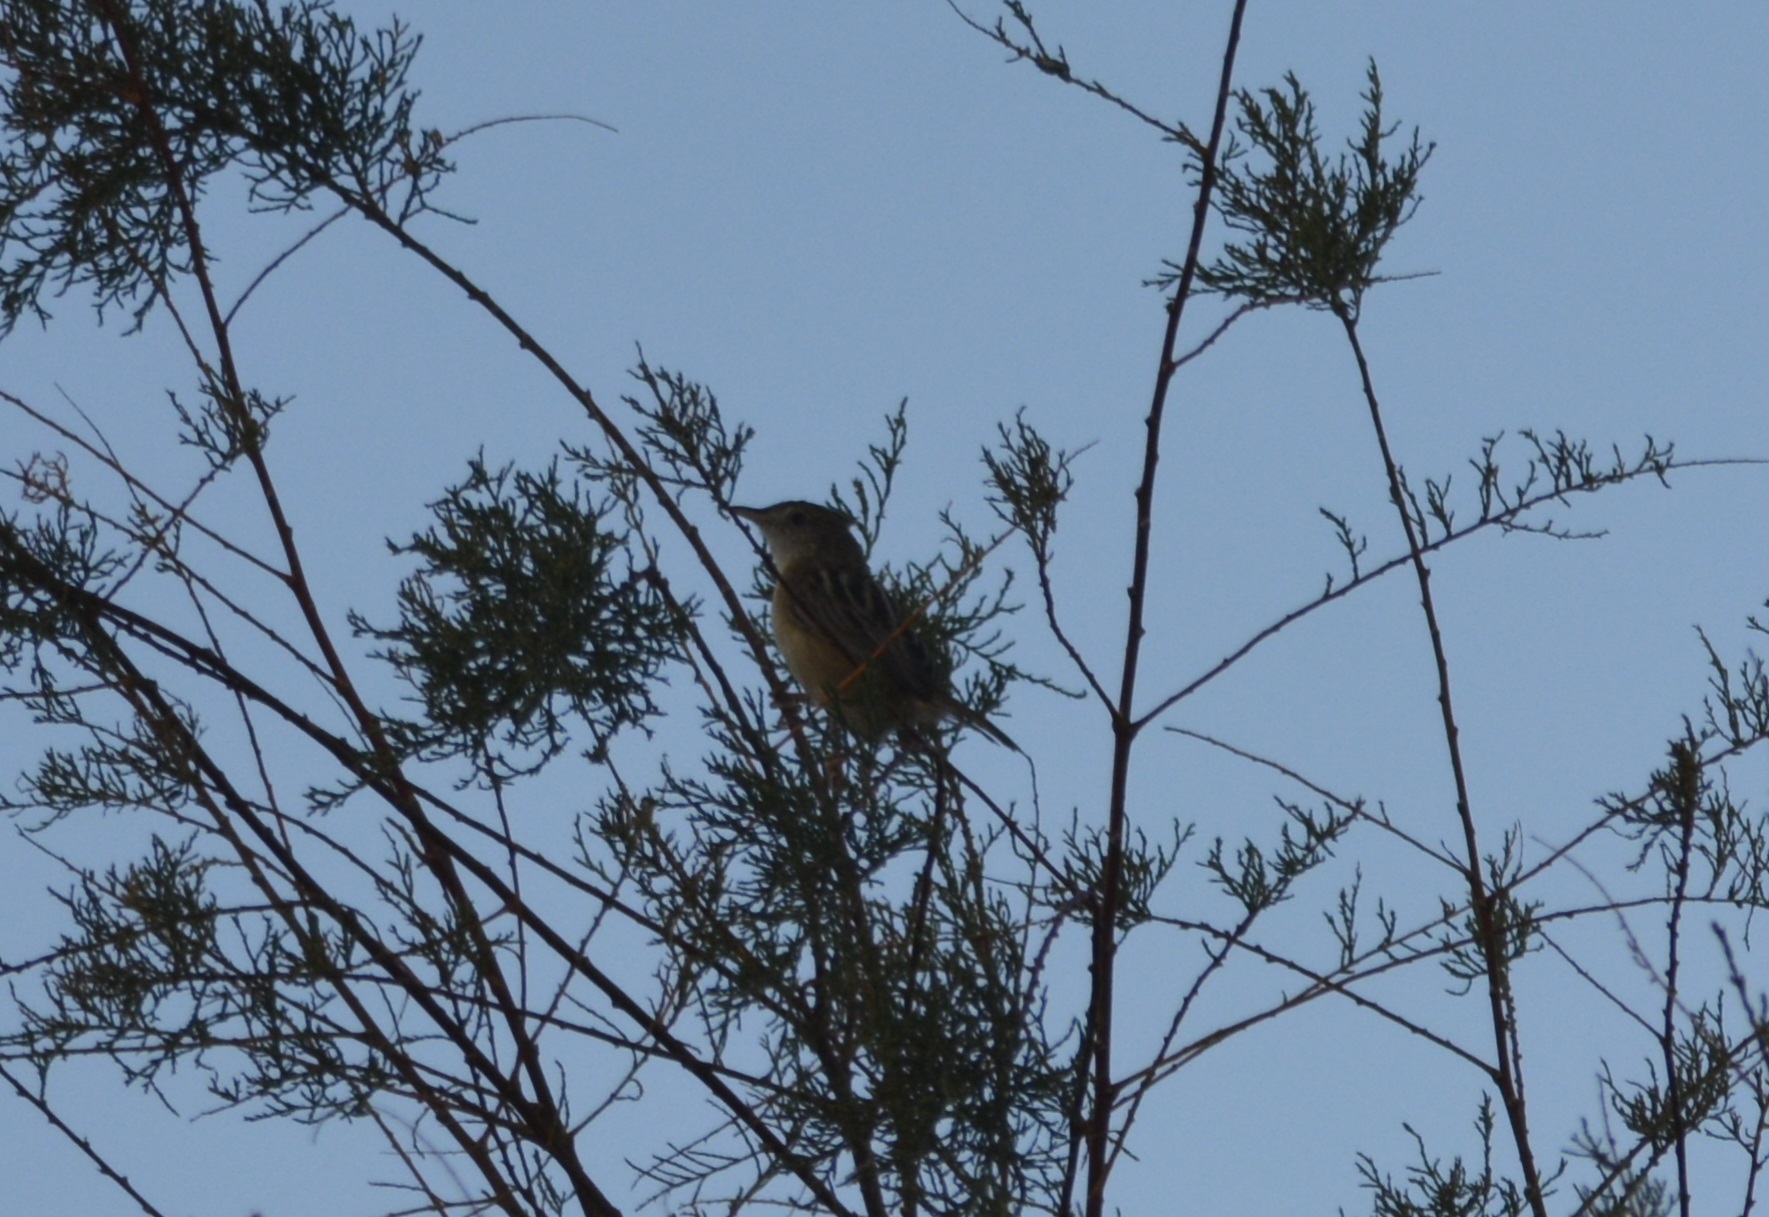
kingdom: Animalia
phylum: Chordata
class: Aves
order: Passeriformes
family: Cisticolidae
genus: Cisticola
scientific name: Cisticola juncidis
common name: Zitting cisticola
